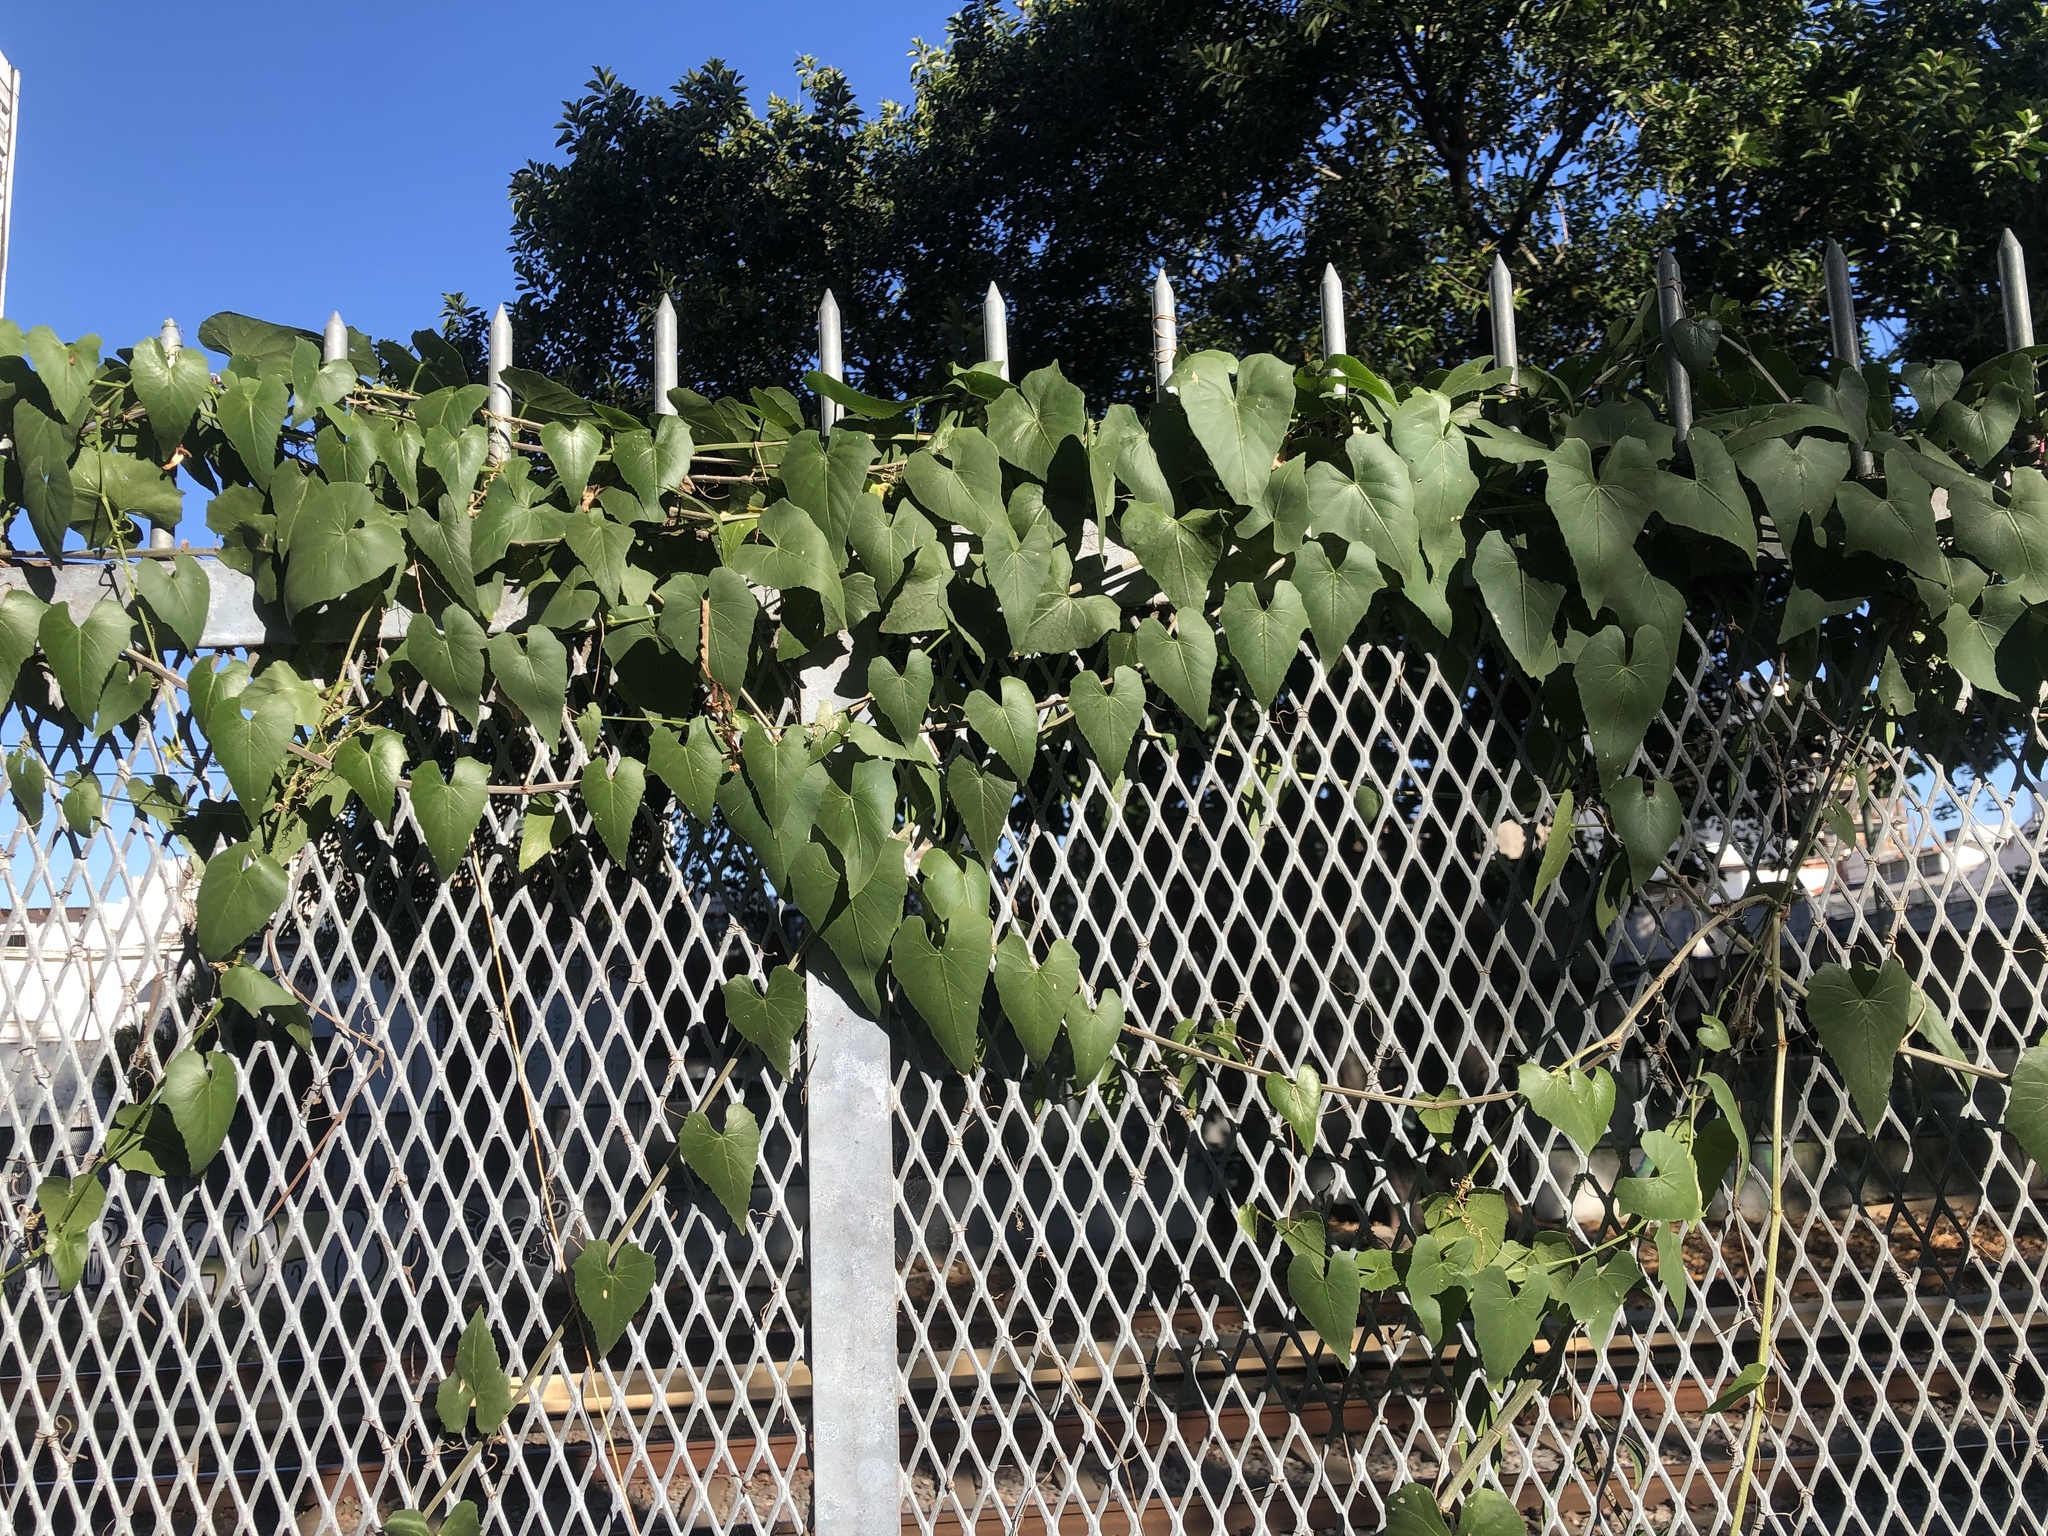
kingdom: Plantae
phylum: Tracheophyta
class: Magnoliopsida
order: Vitales
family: Vitaceae
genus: Cissus
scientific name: Cissus verticillata
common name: Princess vine
